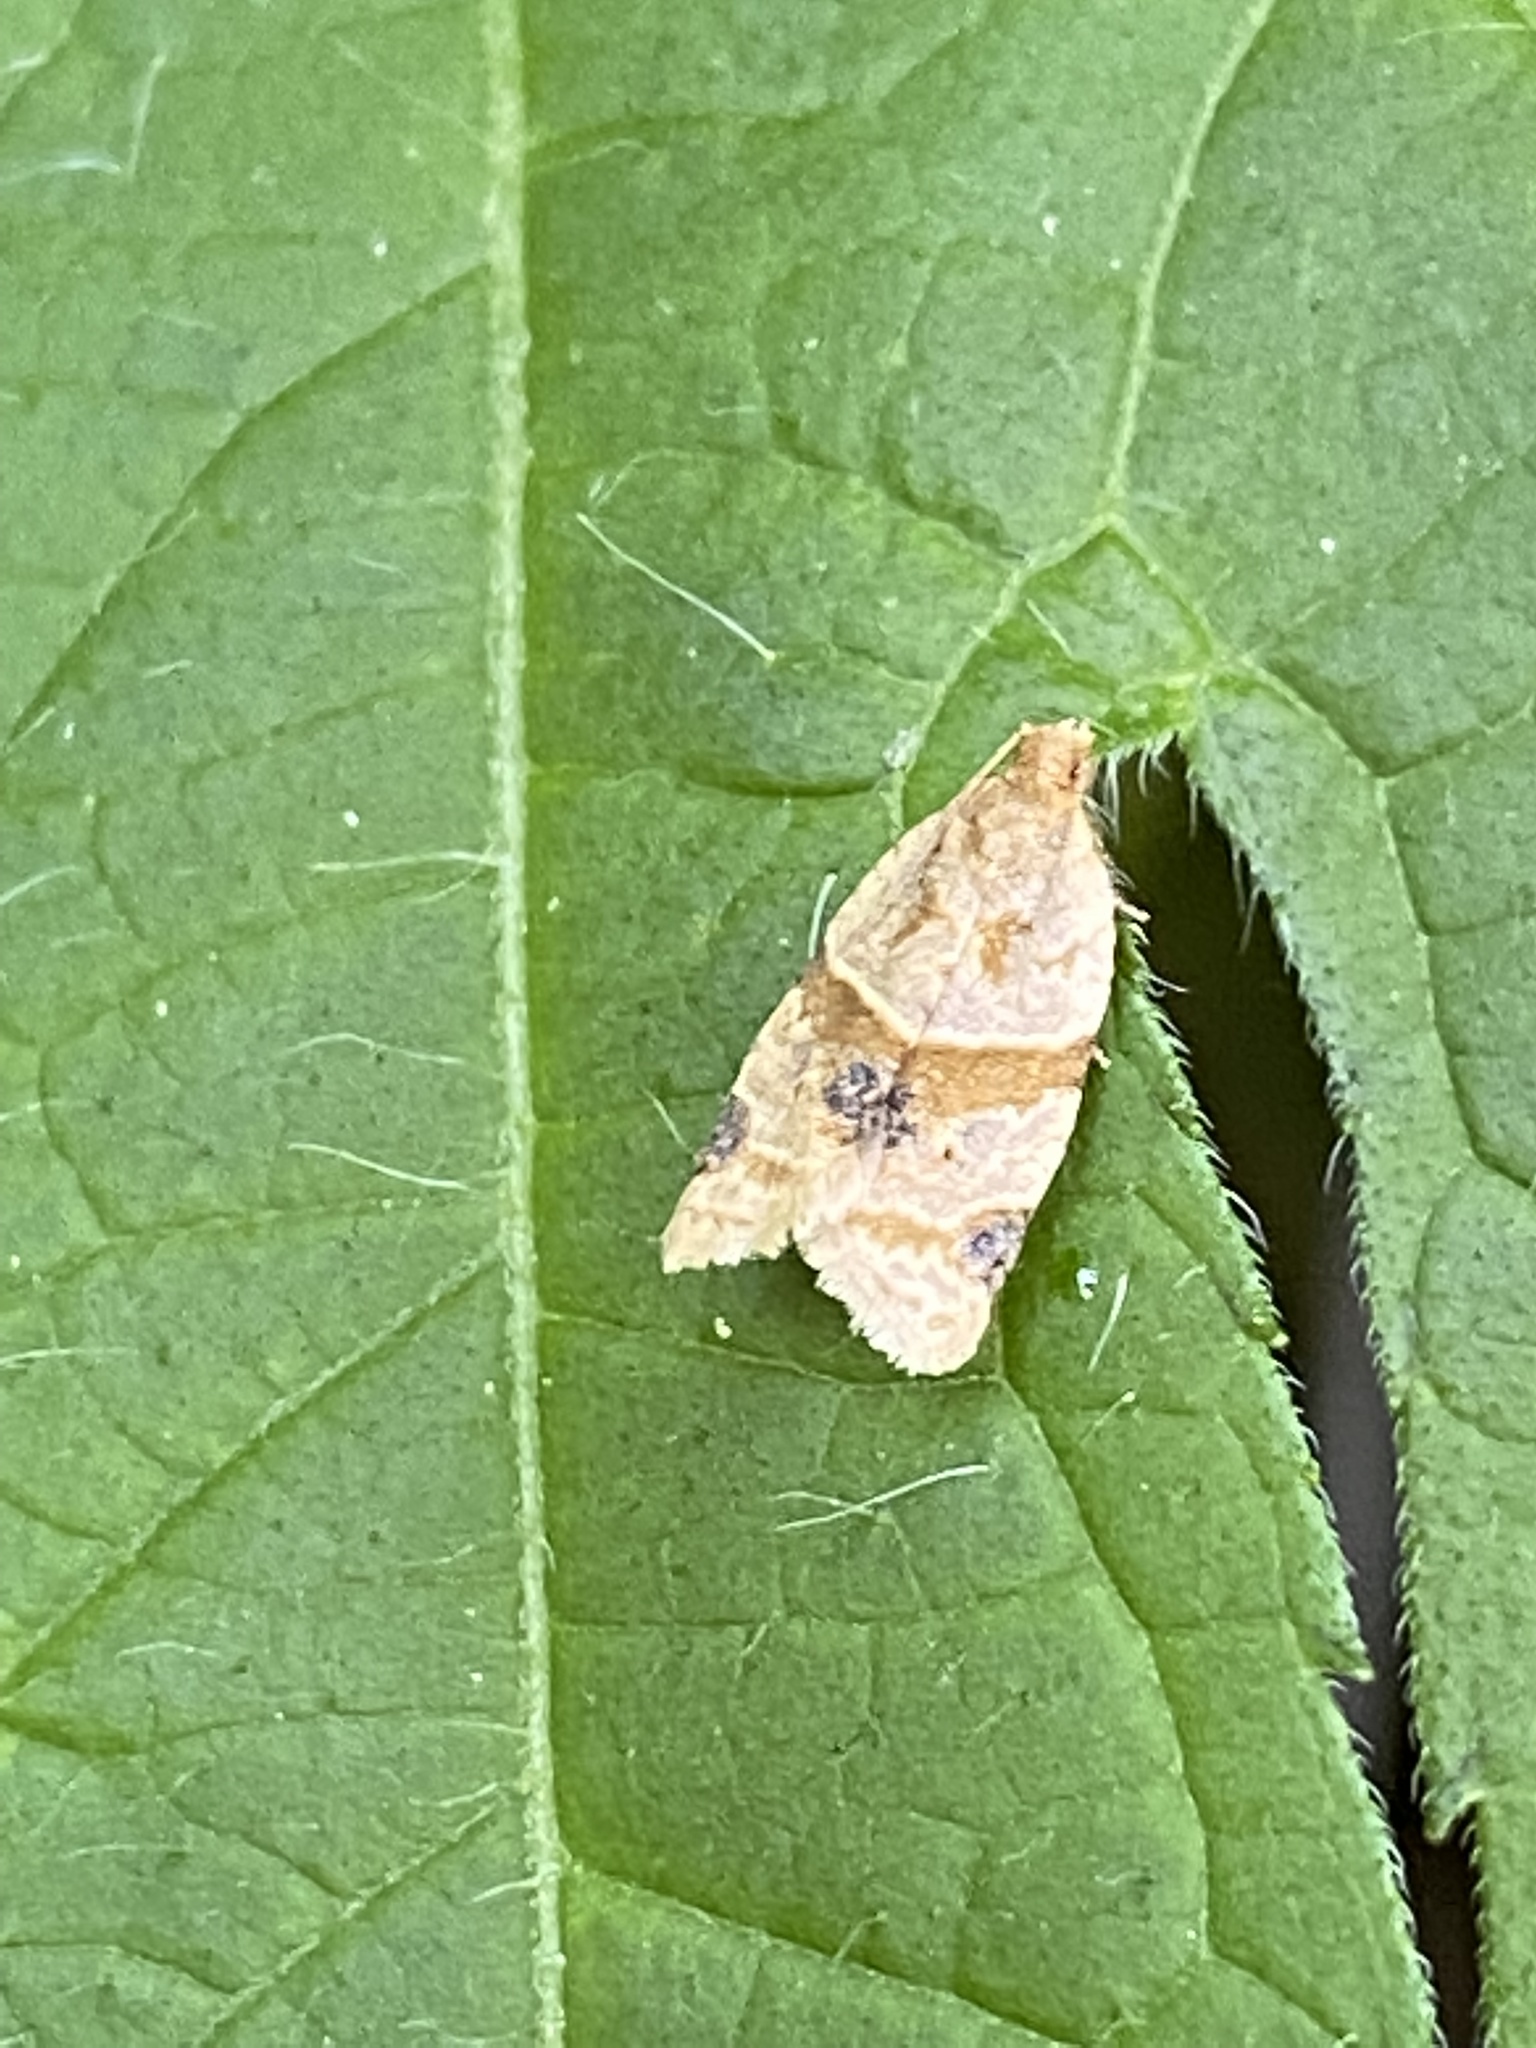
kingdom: Animalia
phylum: Arthropoda
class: Insecta
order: Lepidoptera
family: Tortricidae
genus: Clepsis
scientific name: Clepsis peritana
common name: Garden tortrix
